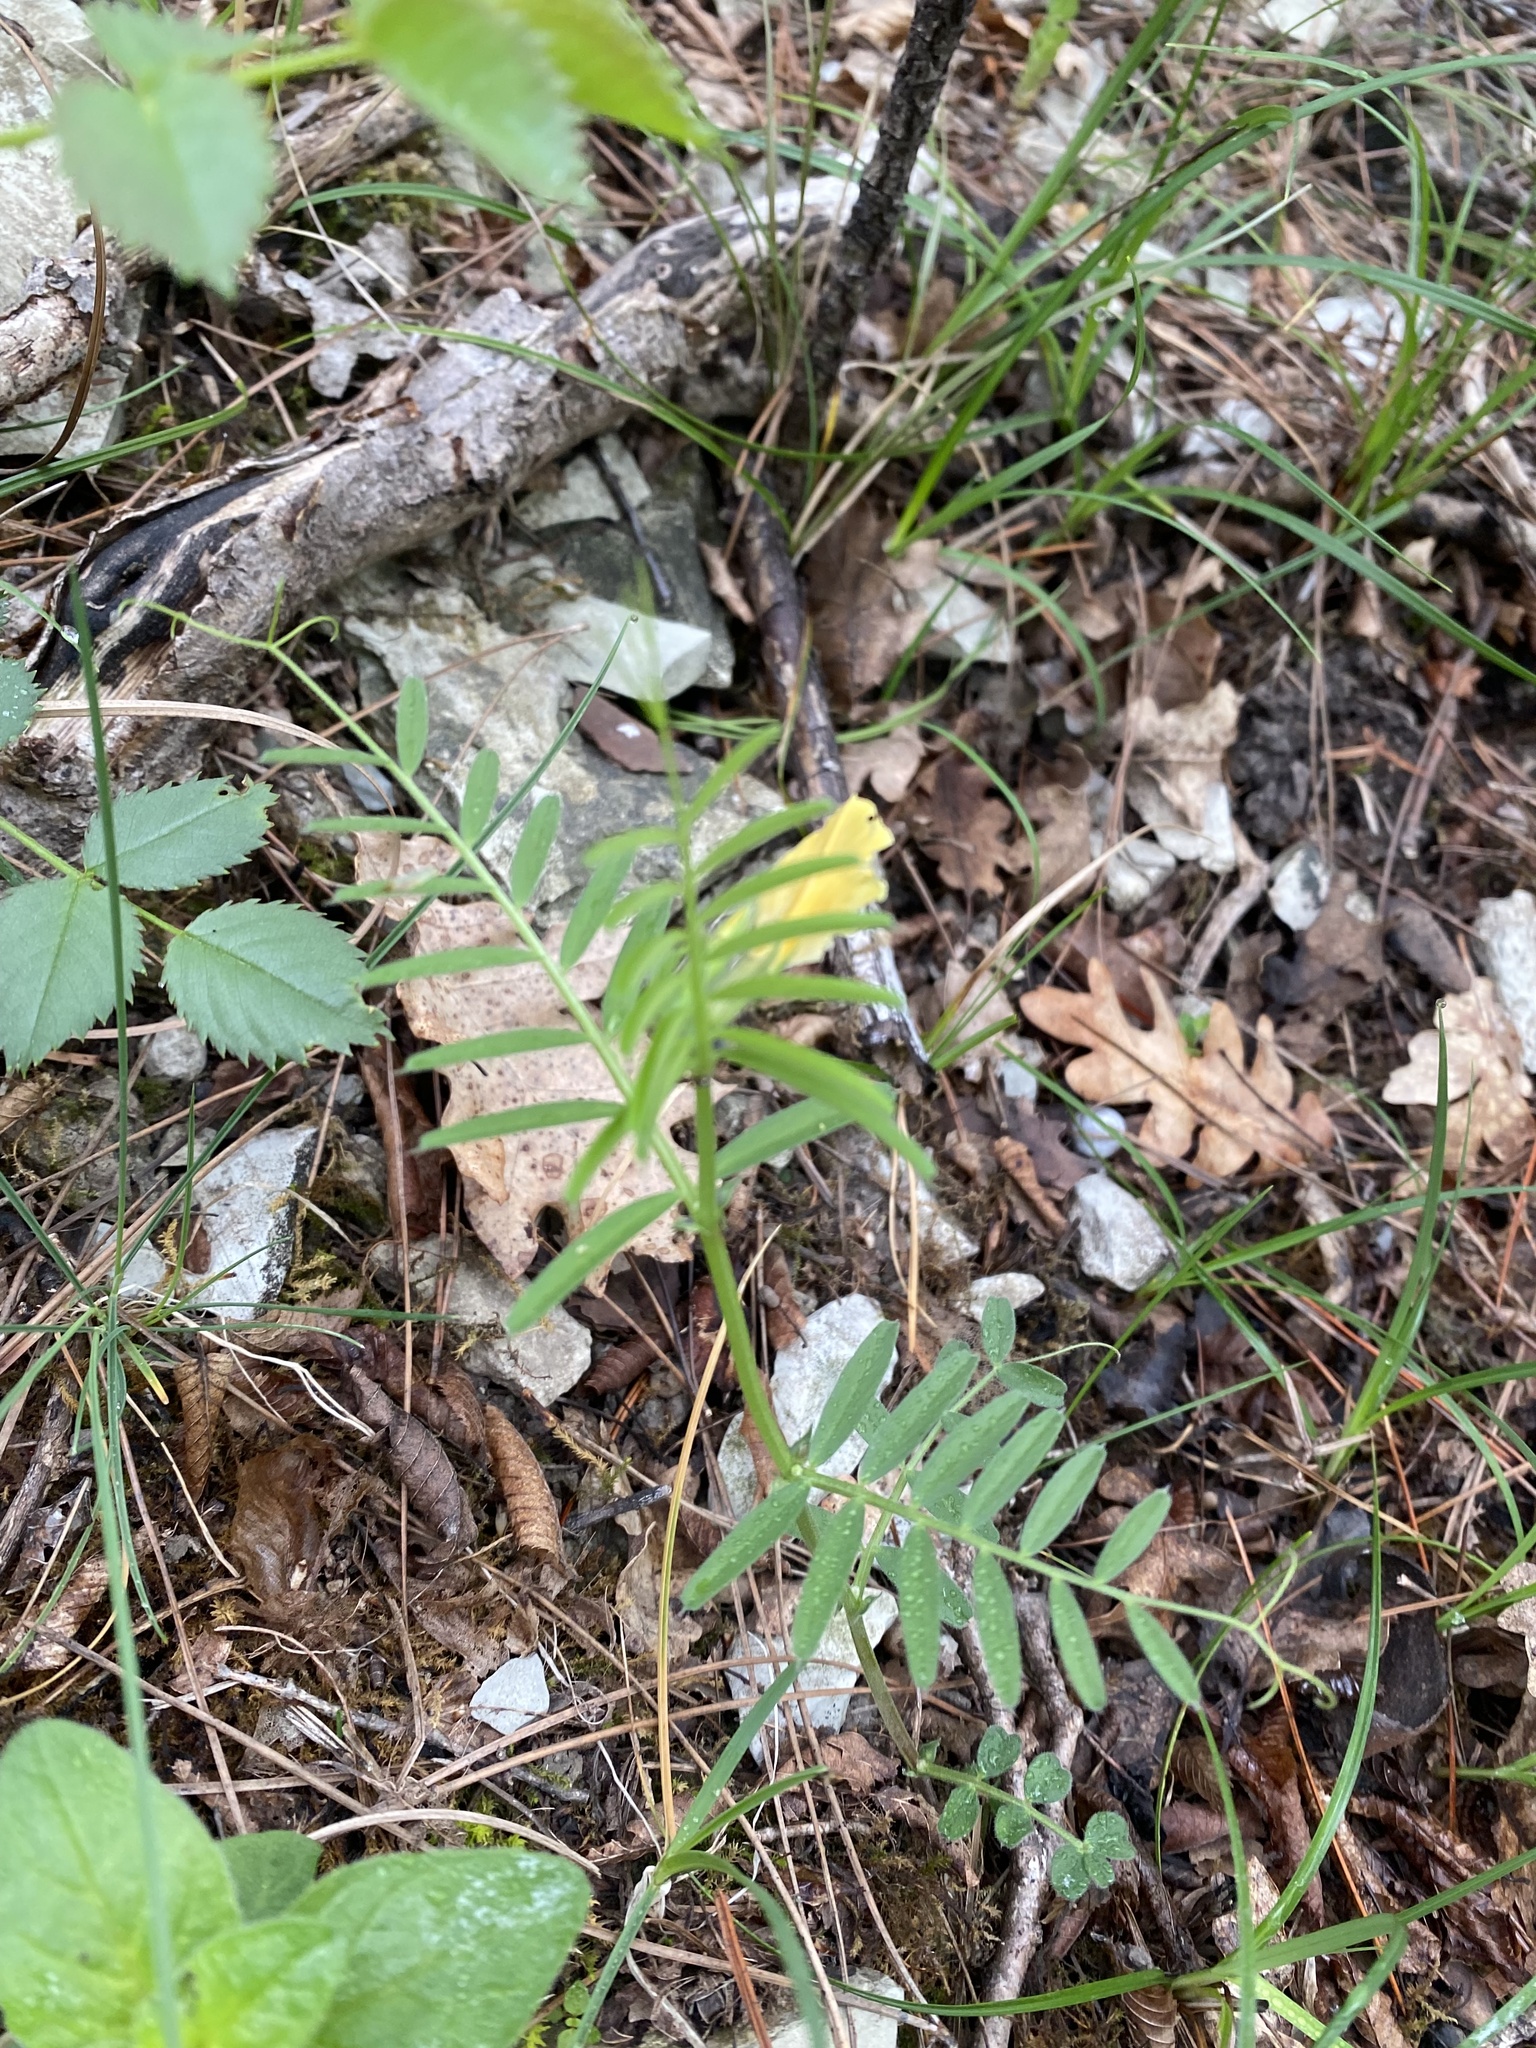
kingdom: Plantae
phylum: Tracheophyta
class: Magnoliopsida
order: Fabales
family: Fabaceae
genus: Vicia
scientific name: Vicia grandiflora
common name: Large yellow vetch
